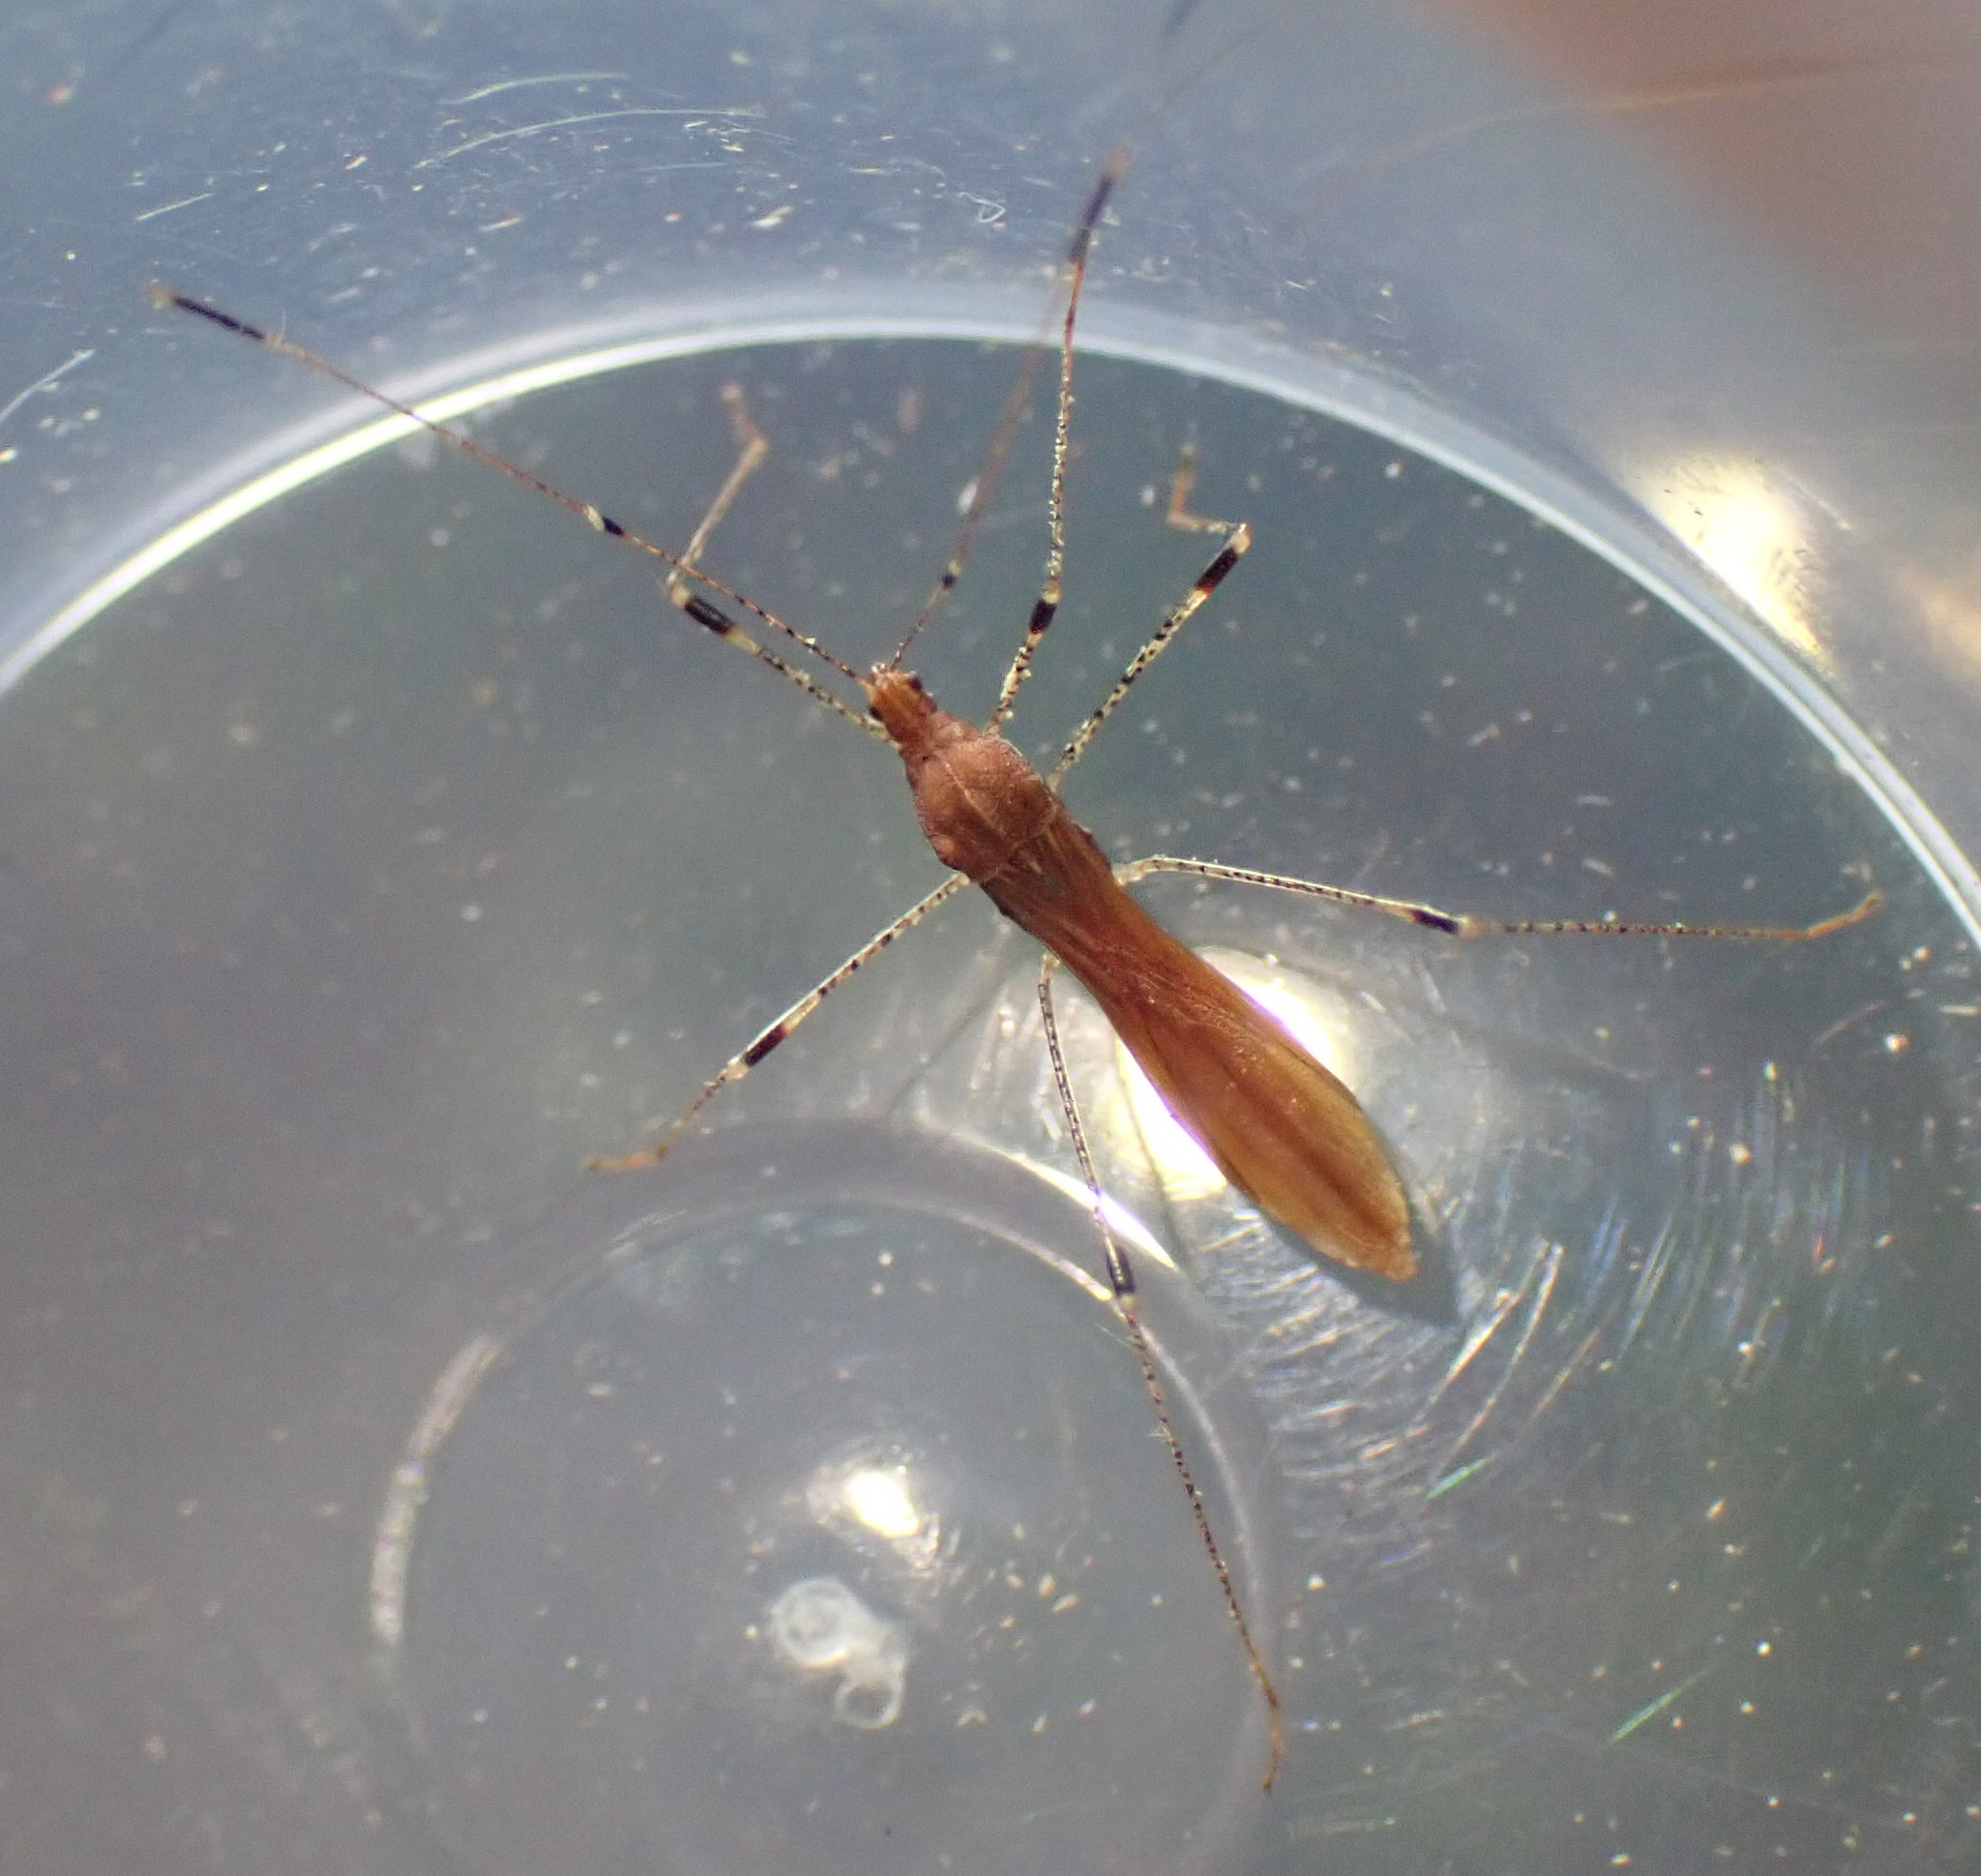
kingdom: Animalia
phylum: Arthropoda
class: Insecta
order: Hemiptera
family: Berytidae
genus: Metatropis
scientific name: Metatropis rufescens
